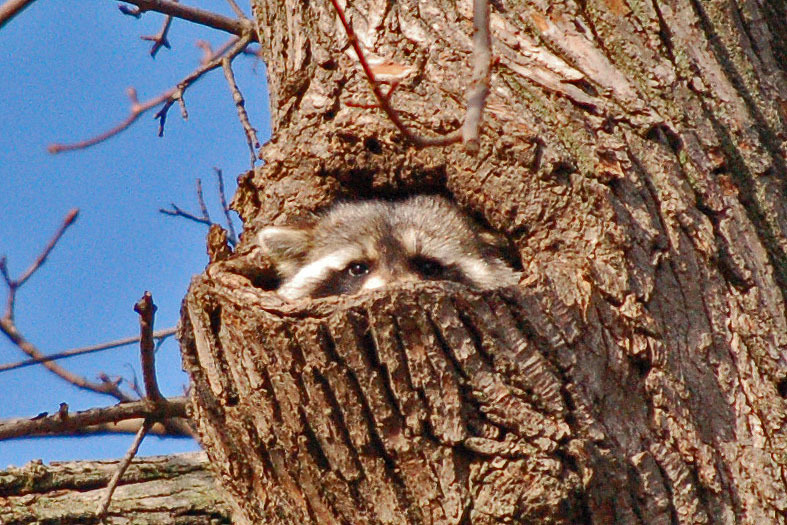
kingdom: Animalia
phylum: Chordata
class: Mammalia
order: Carnivora
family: Procyonidae
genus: Procyon
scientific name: Procyon lotor
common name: Raccoon
